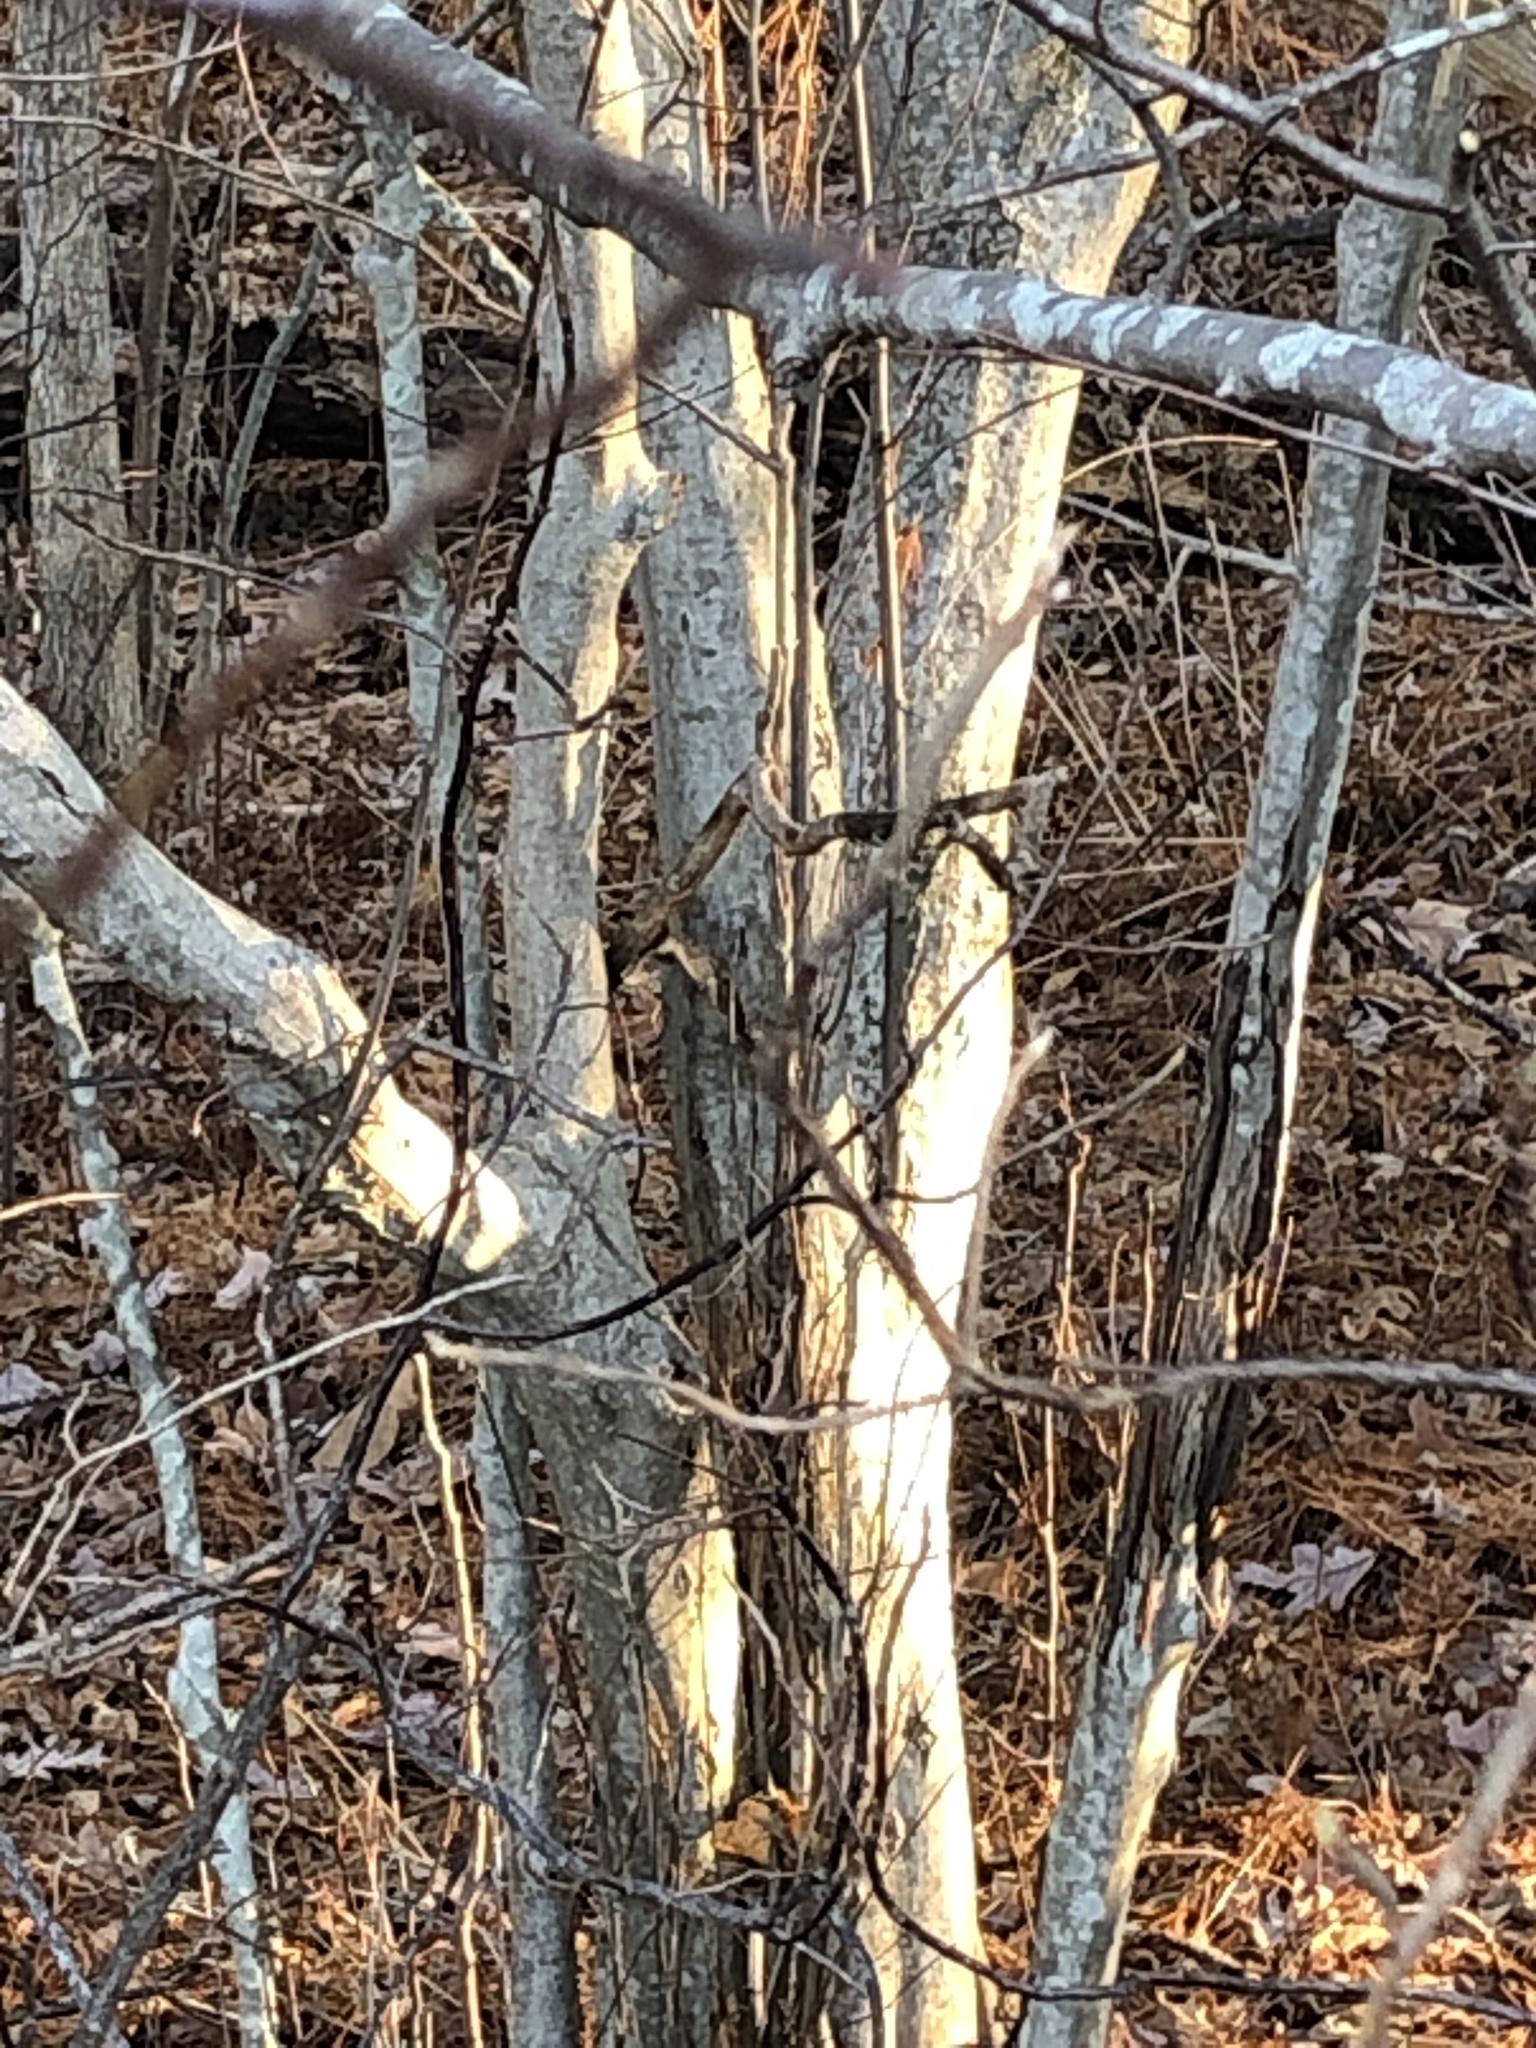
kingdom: Plantae
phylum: Tracheophyta
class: Magnoliopsida
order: Fagales
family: Betulaceae
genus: Carpinus
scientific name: Carpinus caroliniana
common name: American hornbeam
